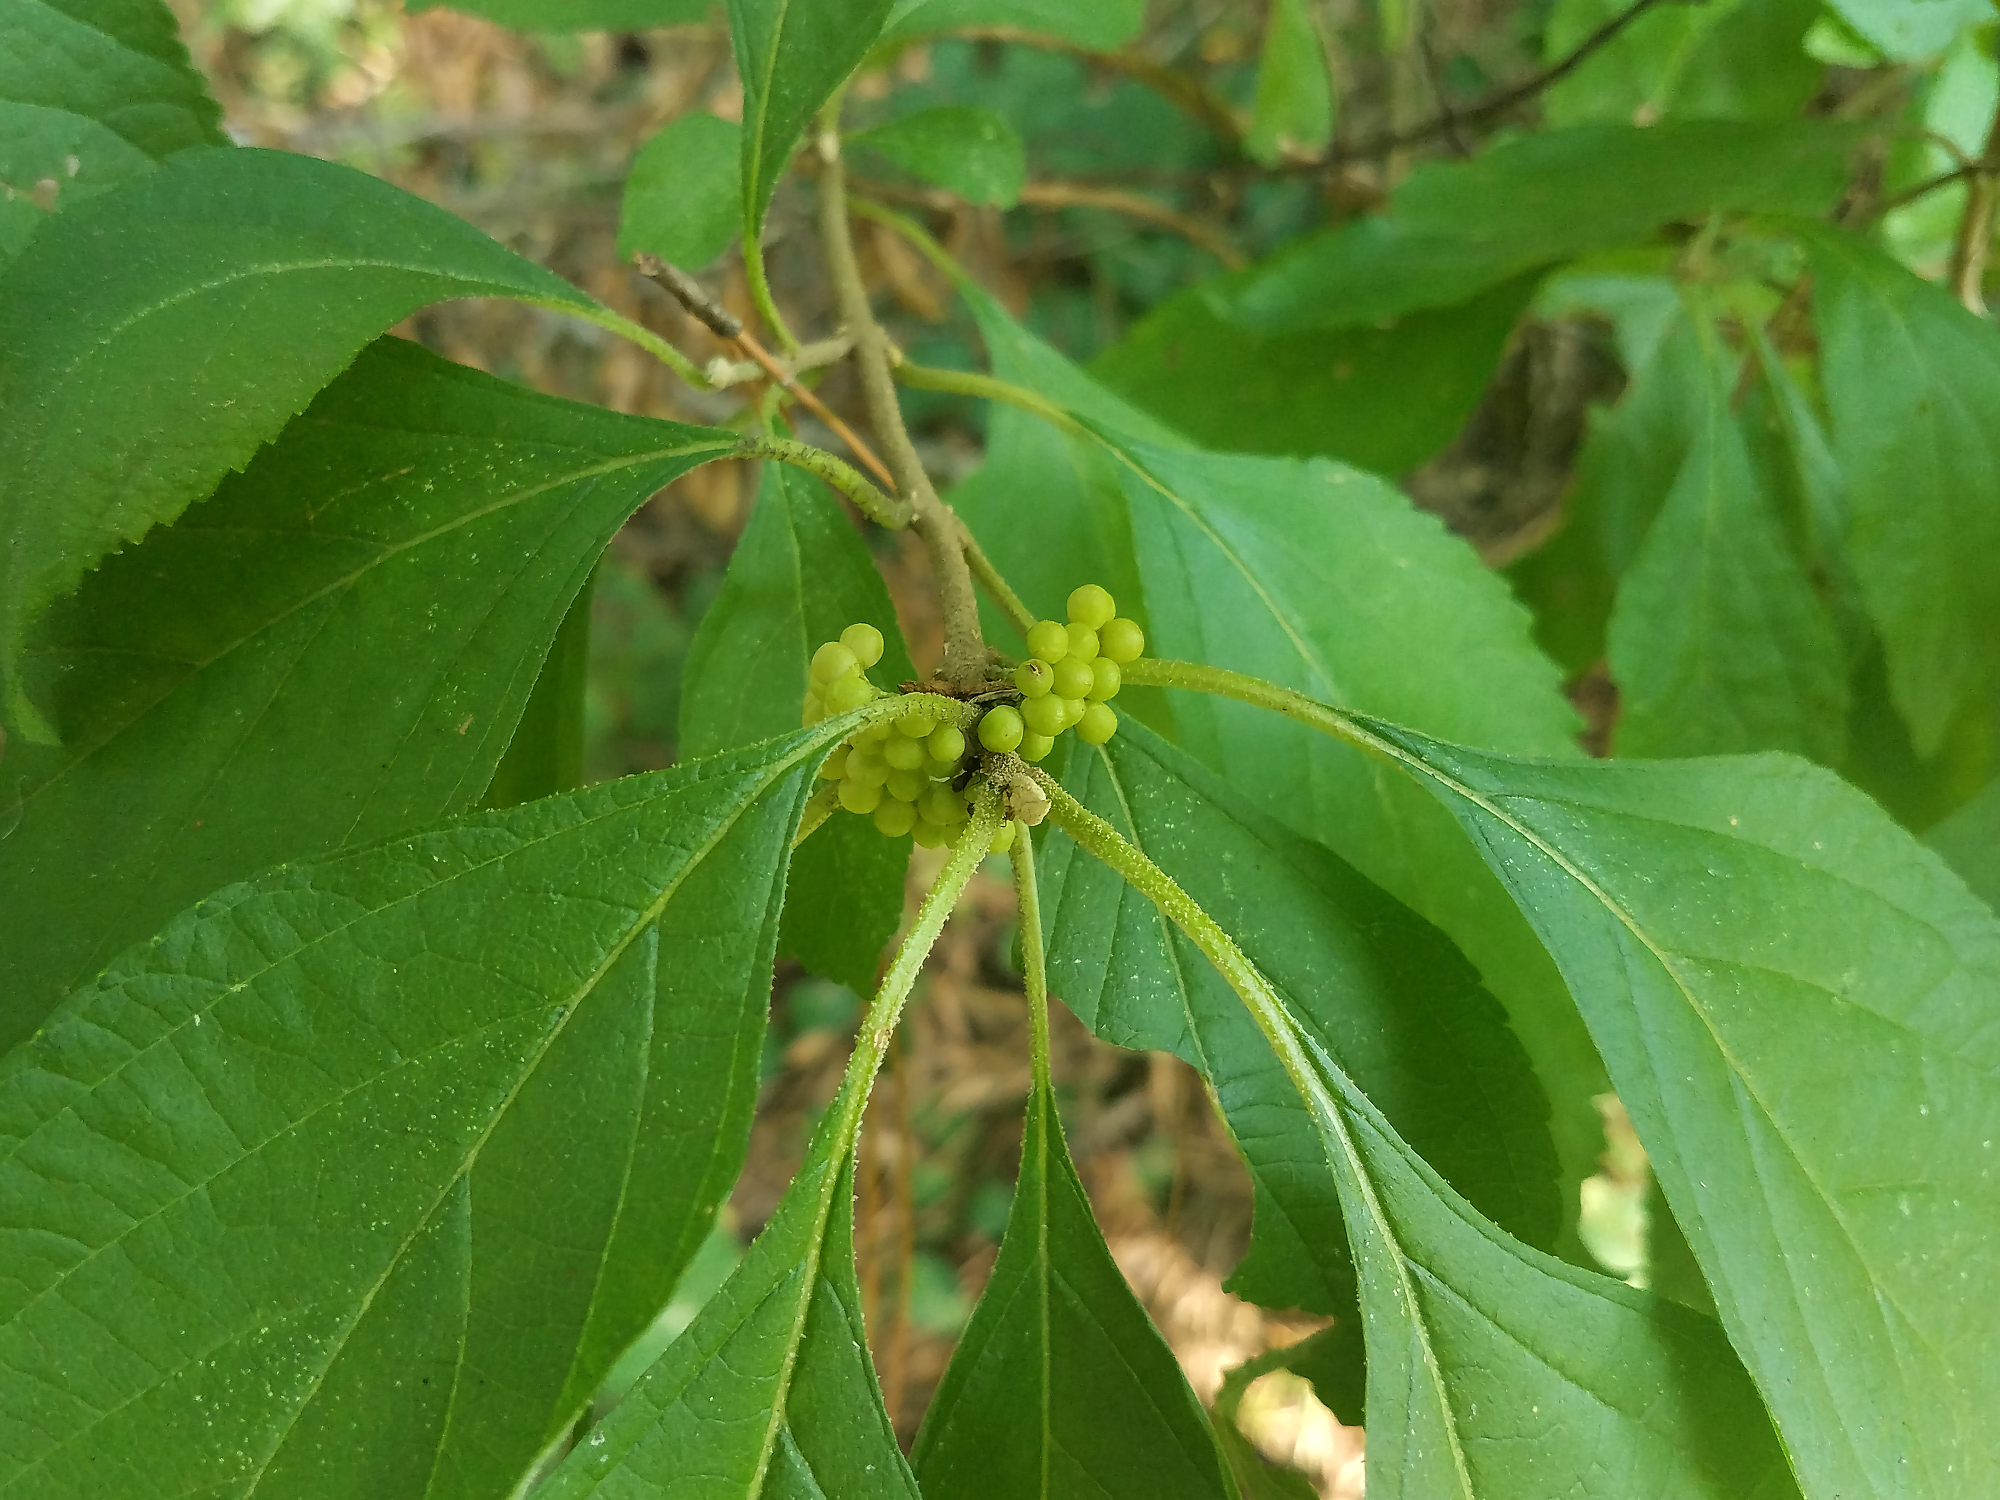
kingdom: Plantae
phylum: Tracheophyta
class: Magnoliopsida
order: Lamiales
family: Lamiaceae
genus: Callicarpa
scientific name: Callicarpa americana
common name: American beautyberry
